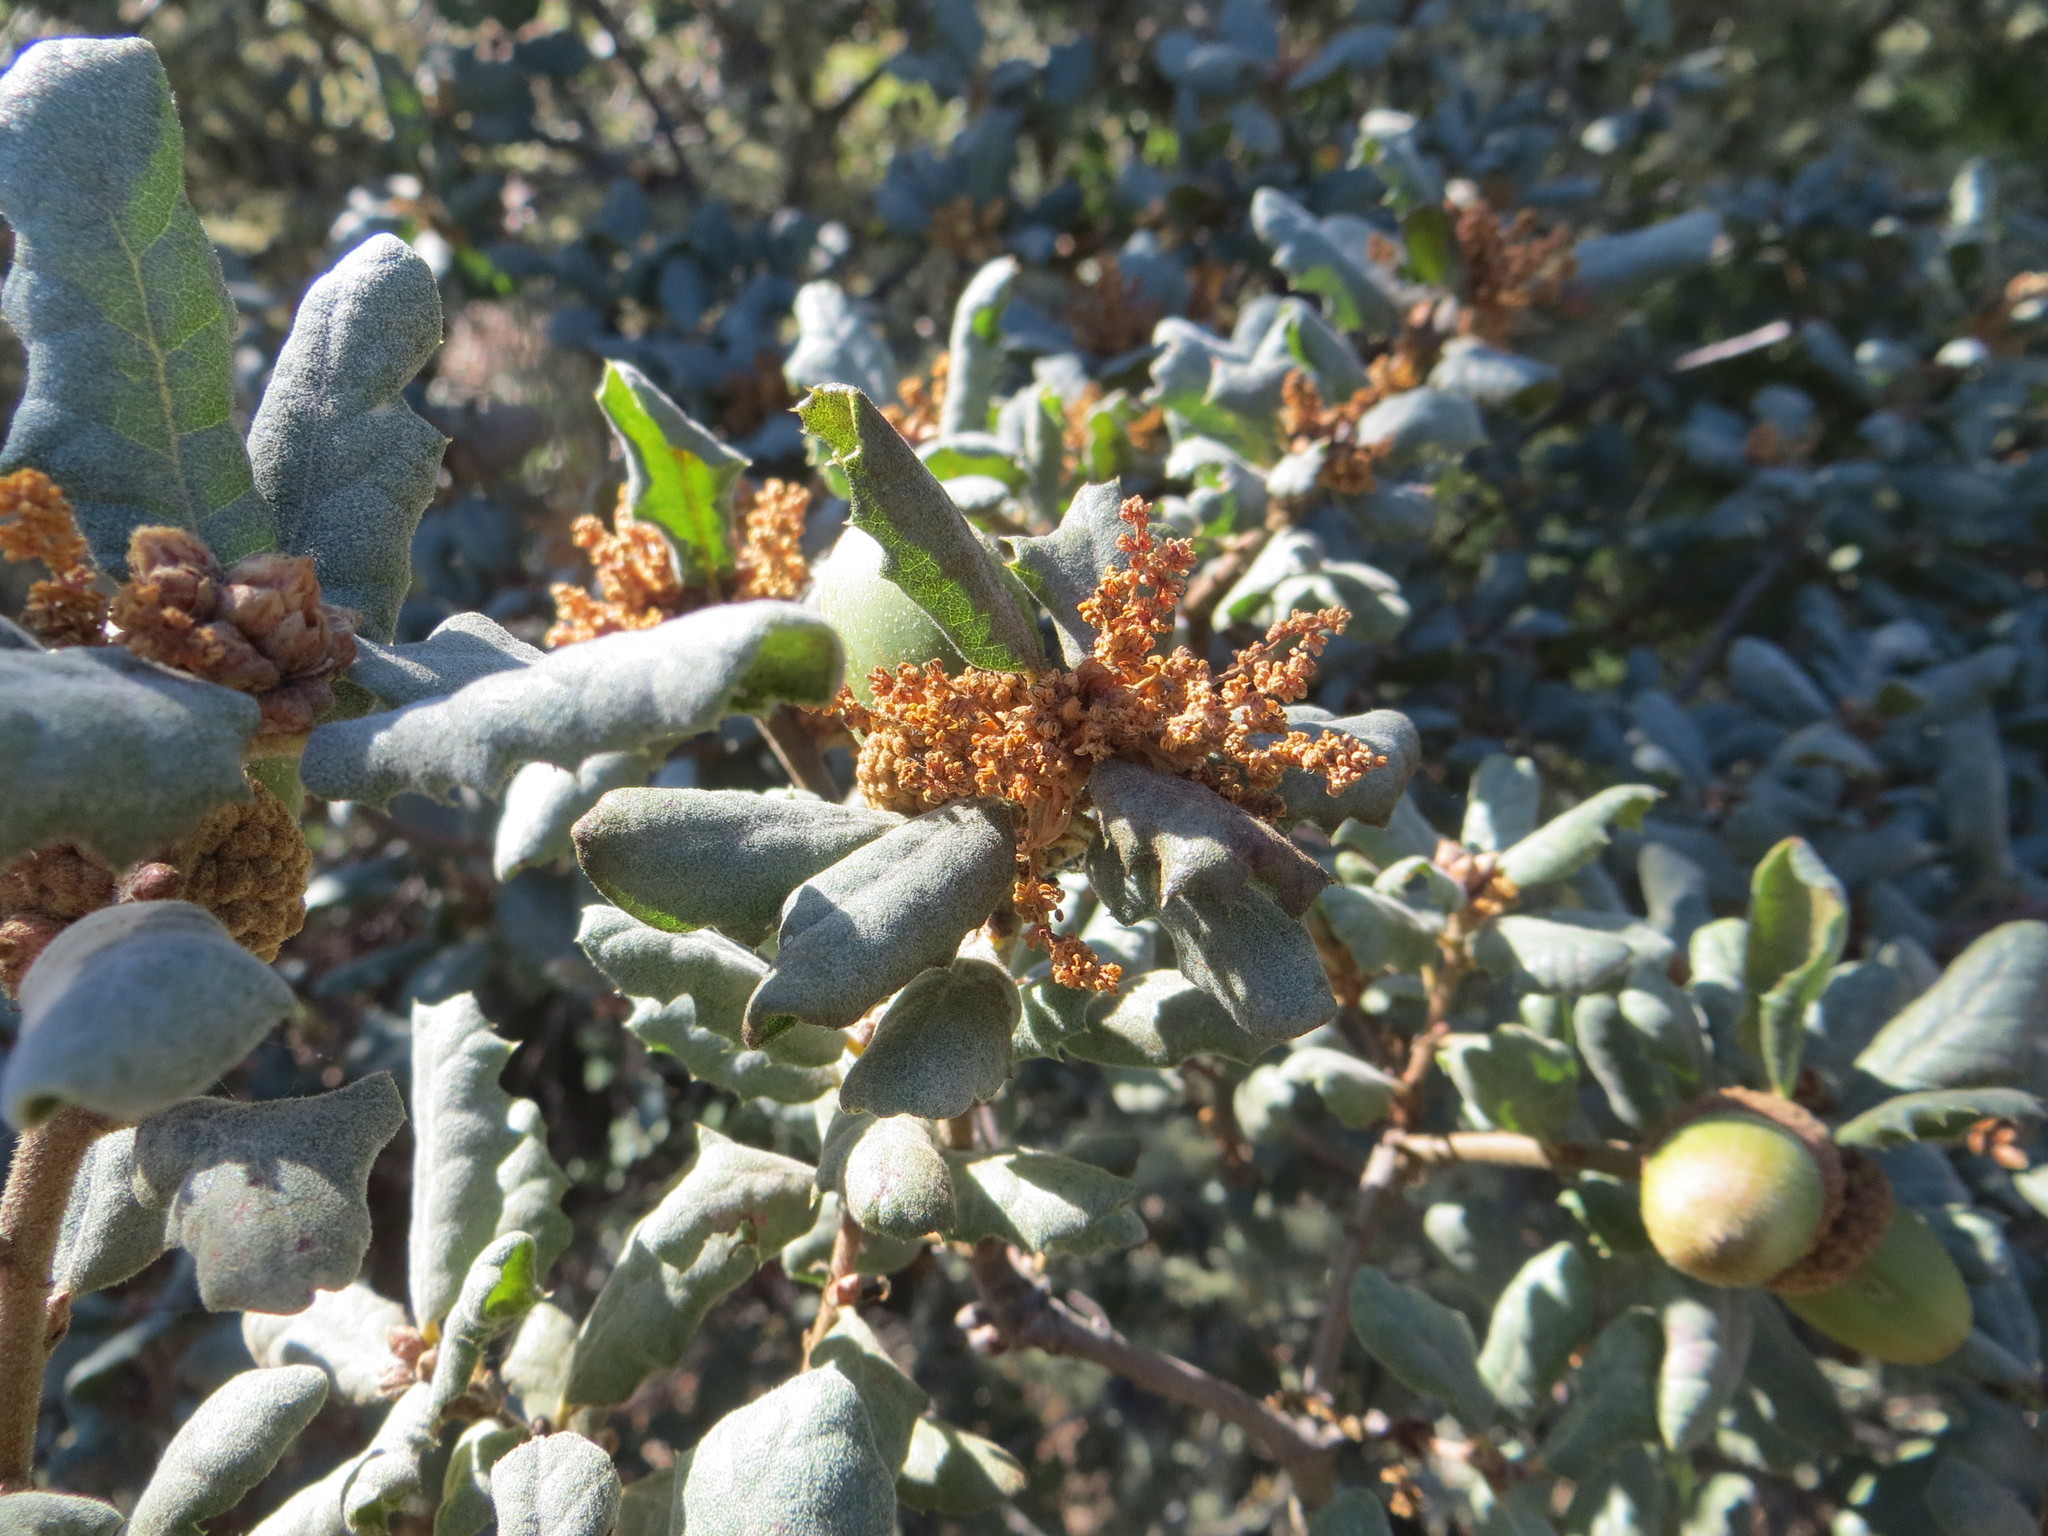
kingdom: Plantae
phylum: Tracheophyta
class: Magnoliopsida
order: Fagales
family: Fagaceae
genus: Quercus
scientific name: Quercus durata
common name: Leather oak
